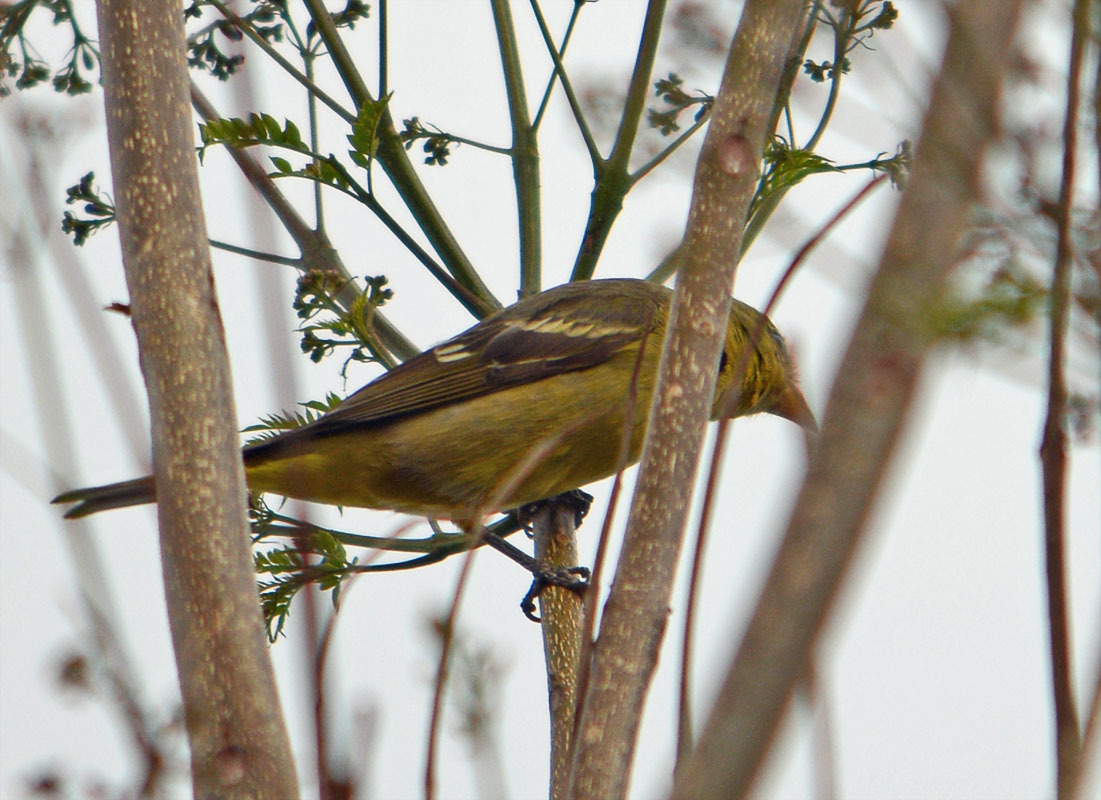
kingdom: Animalia
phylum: Chordata
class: Aves
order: Passeriformes
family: Cardinalidae
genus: Piranga
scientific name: Piranga ludoviciana
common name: Western tanager
